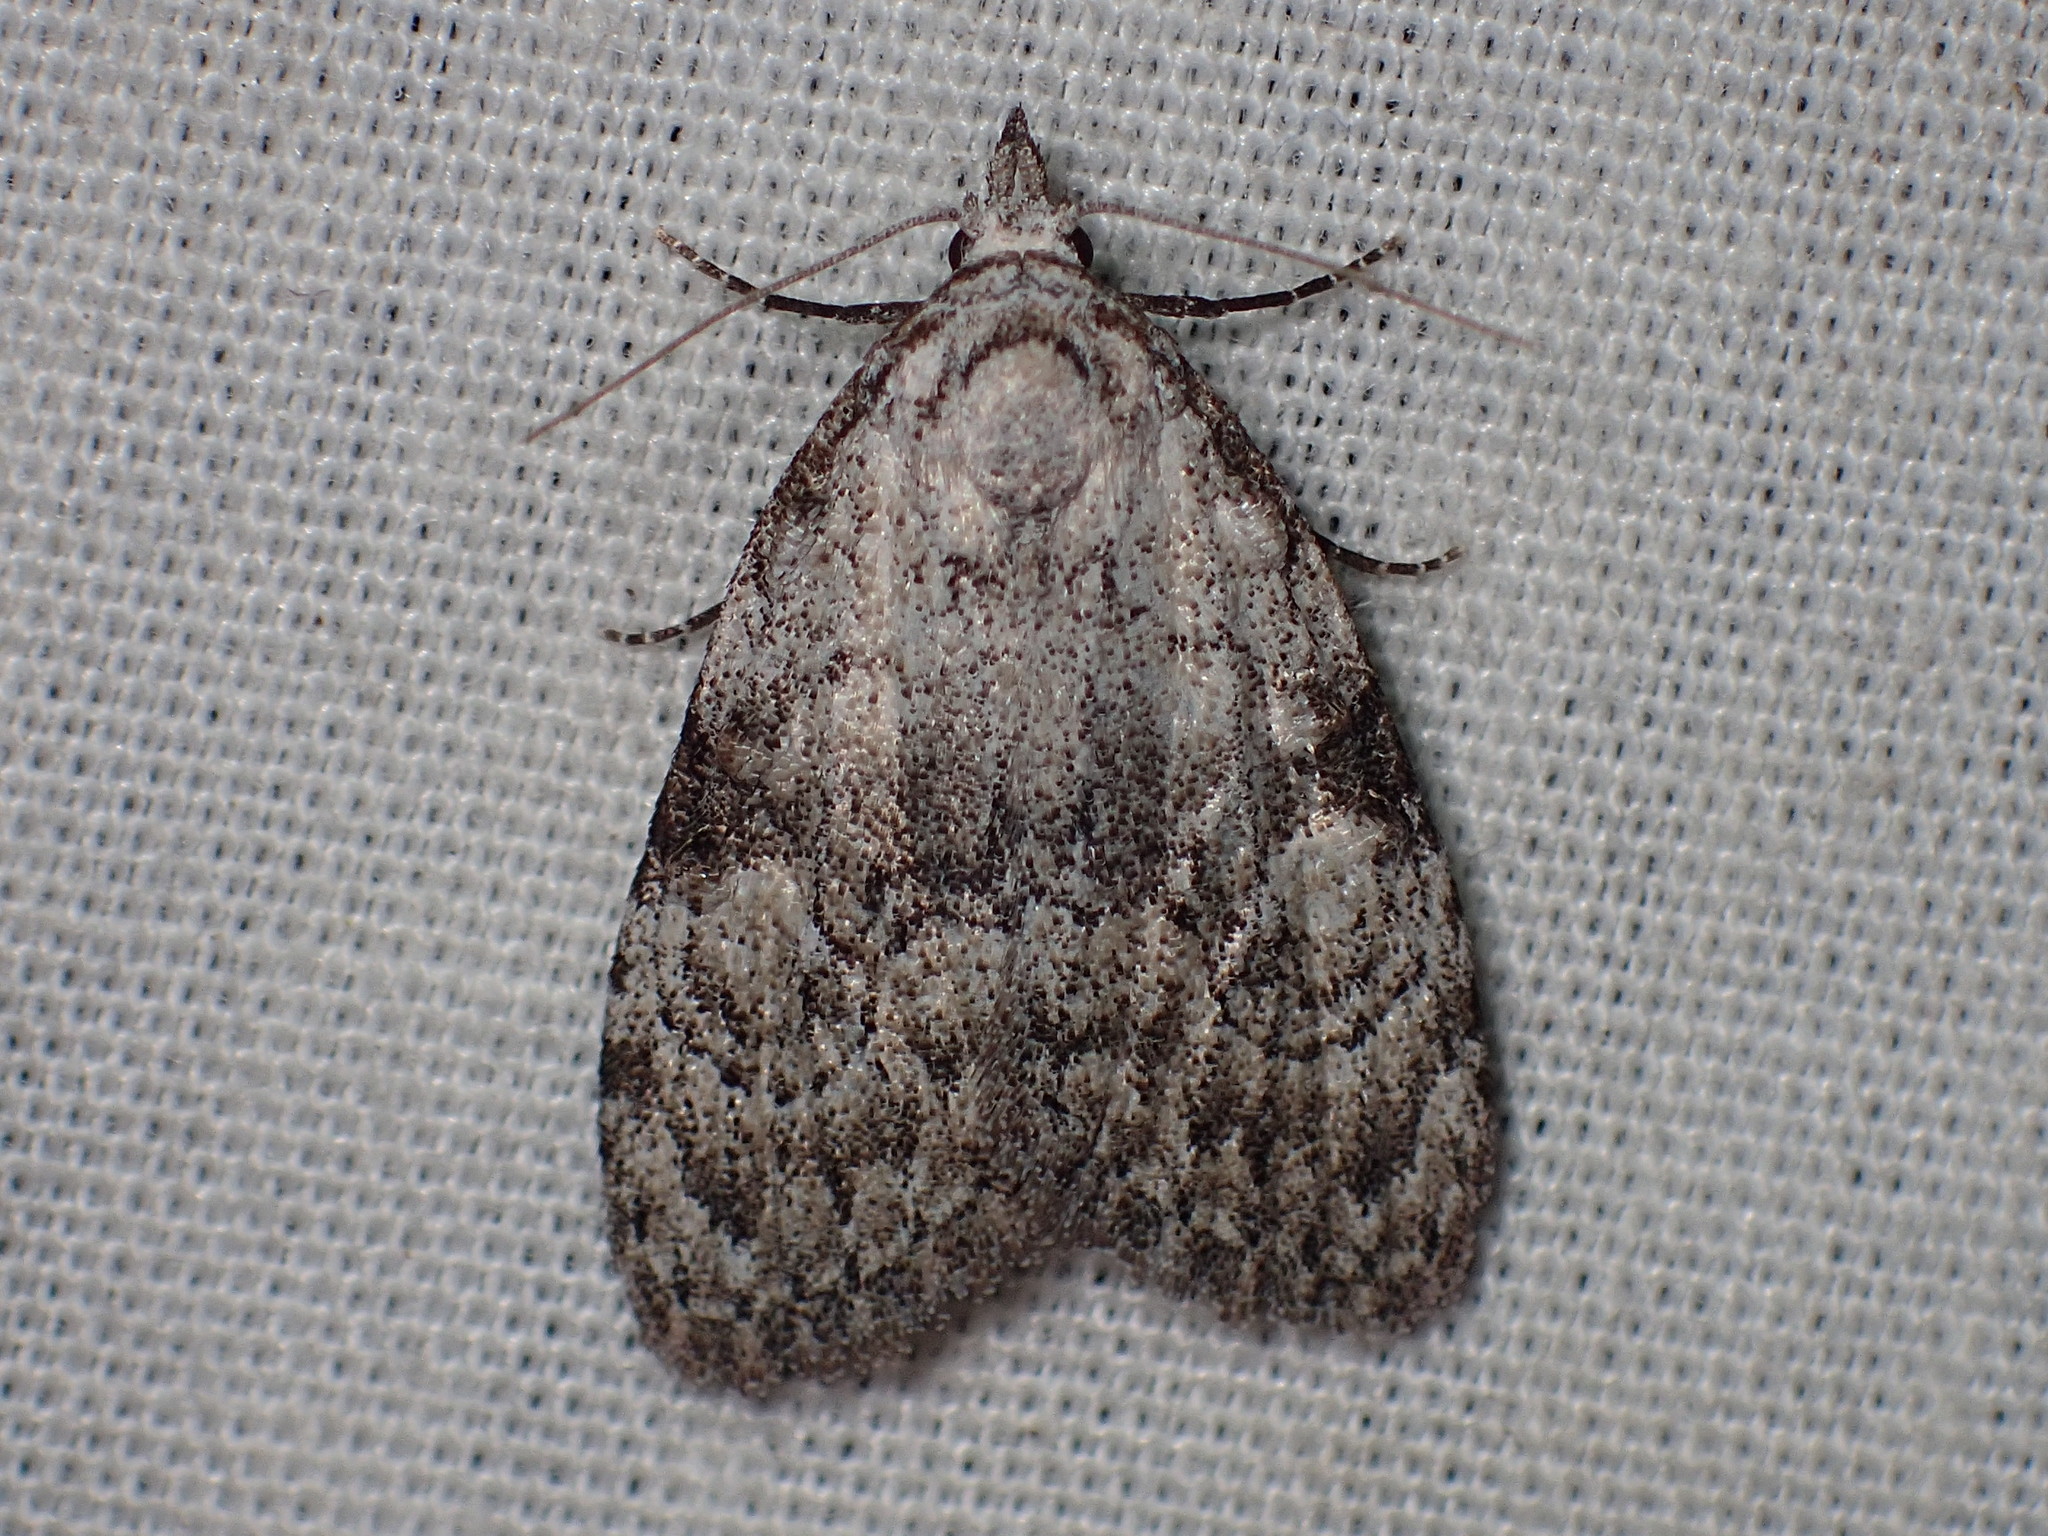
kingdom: Animalia
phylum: Arthropoda
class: Insecta
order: Lepidoptera
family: Nolidae
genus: Meganola
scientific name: Meganola minuscula
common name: Confused meganola moth
